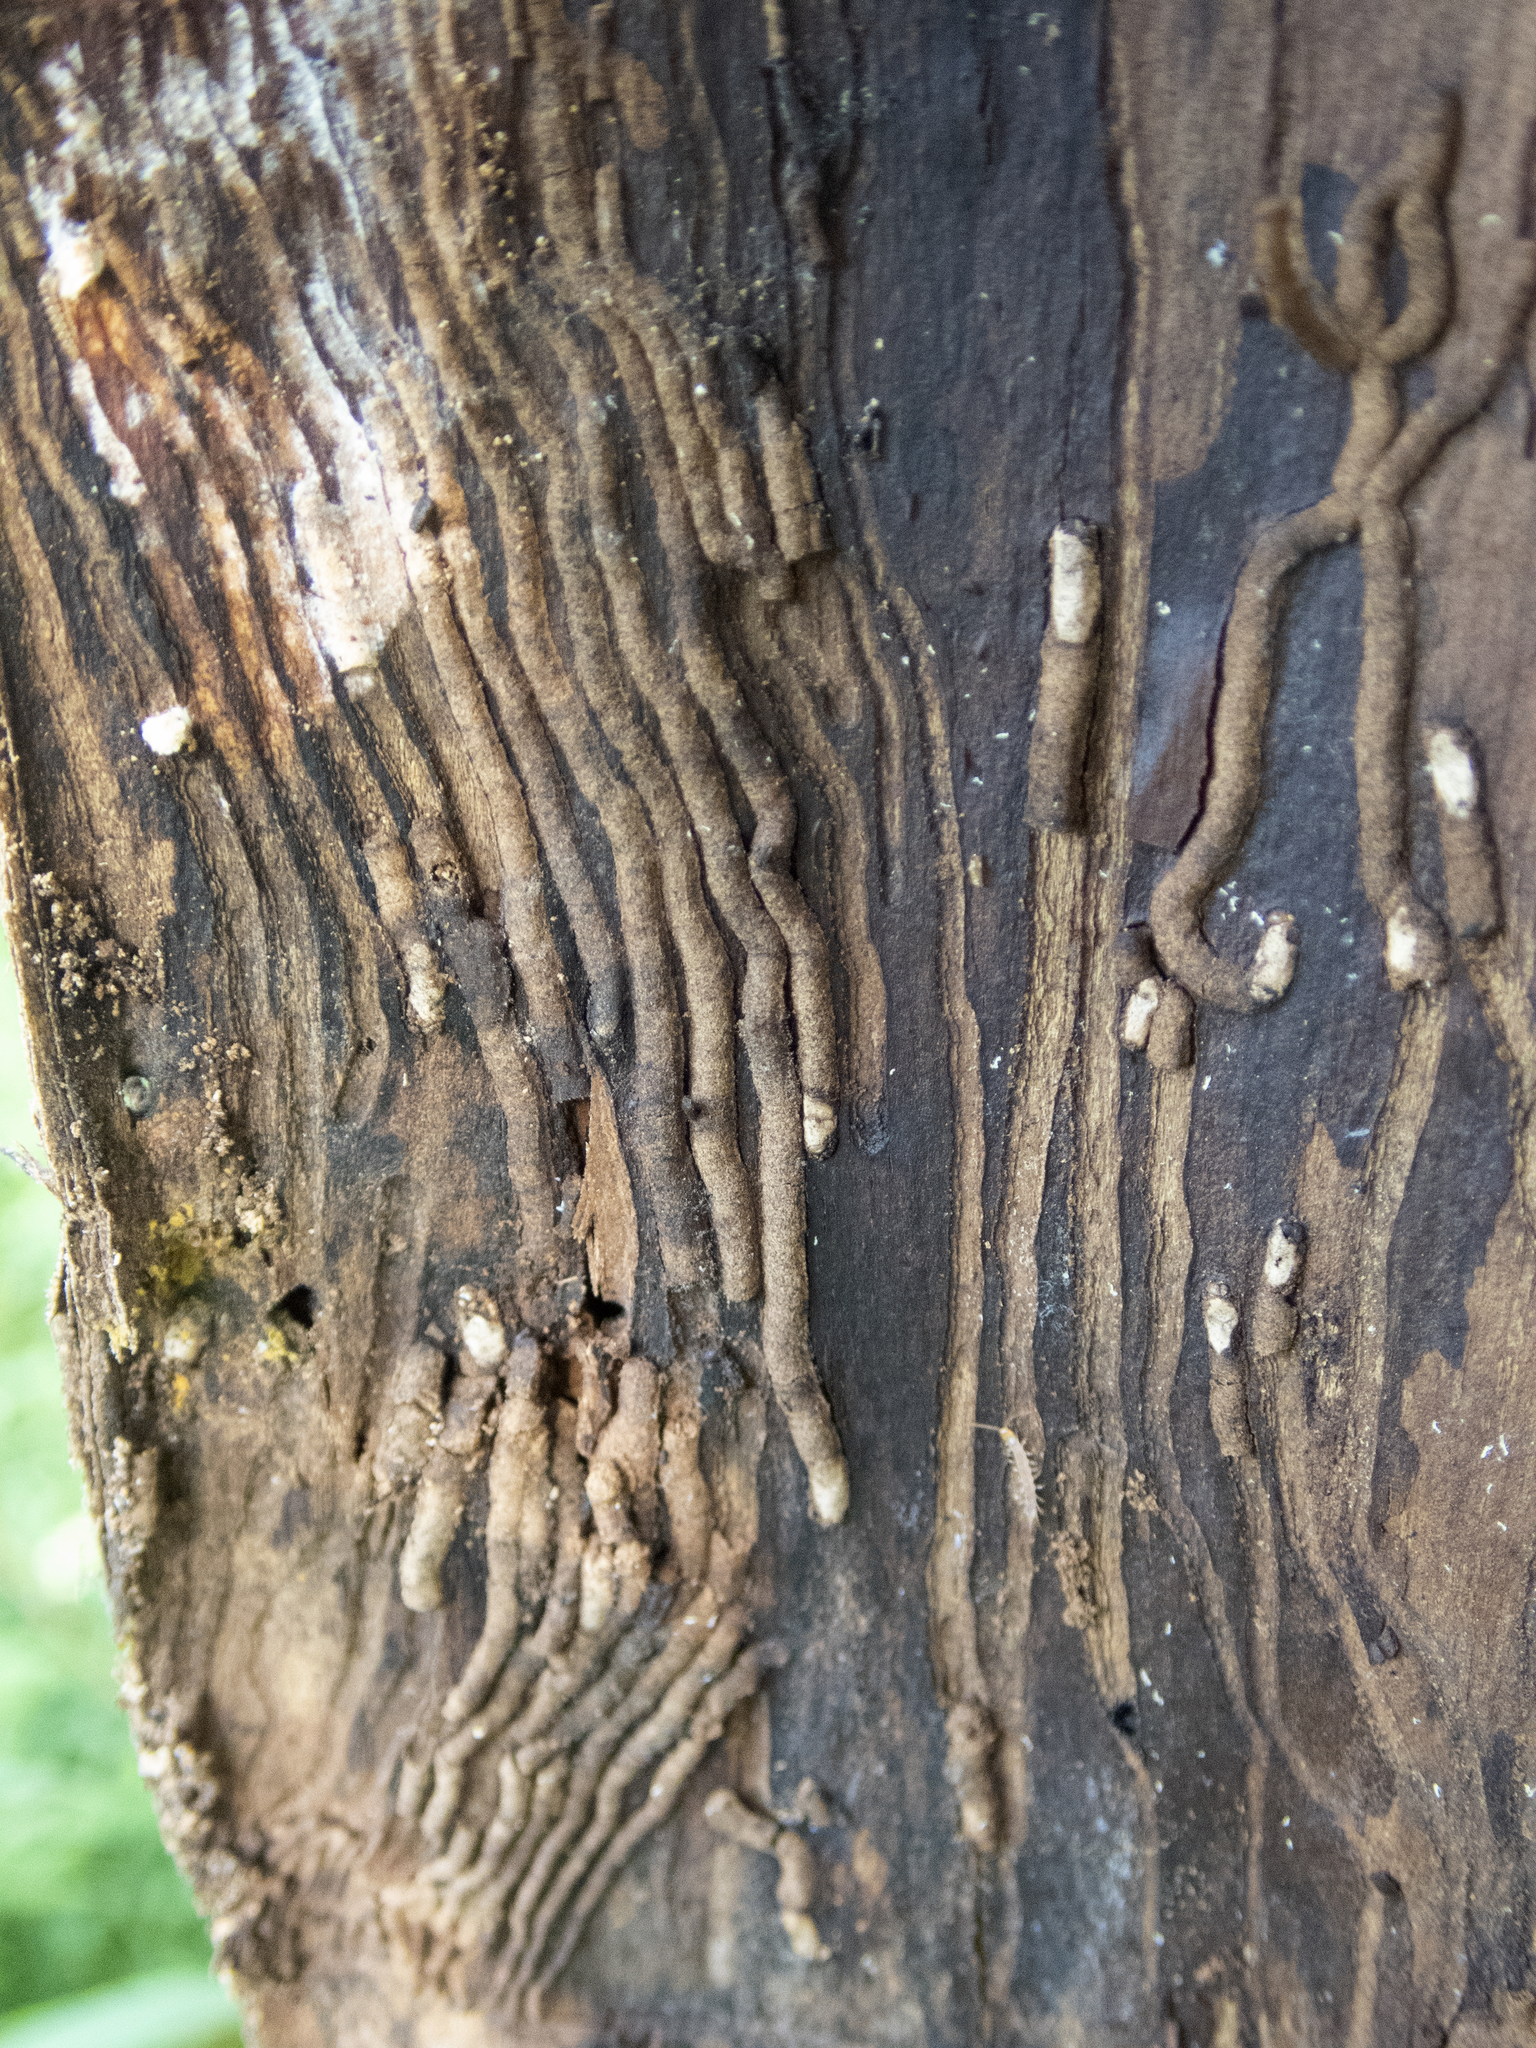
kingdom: Animalia
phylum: Arthropoda
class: Insecta
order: Coleoptera
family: Curculionidae
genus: Hylesinus
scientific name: Hylesinus aculeatus
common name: Easter-ash bark beetle
